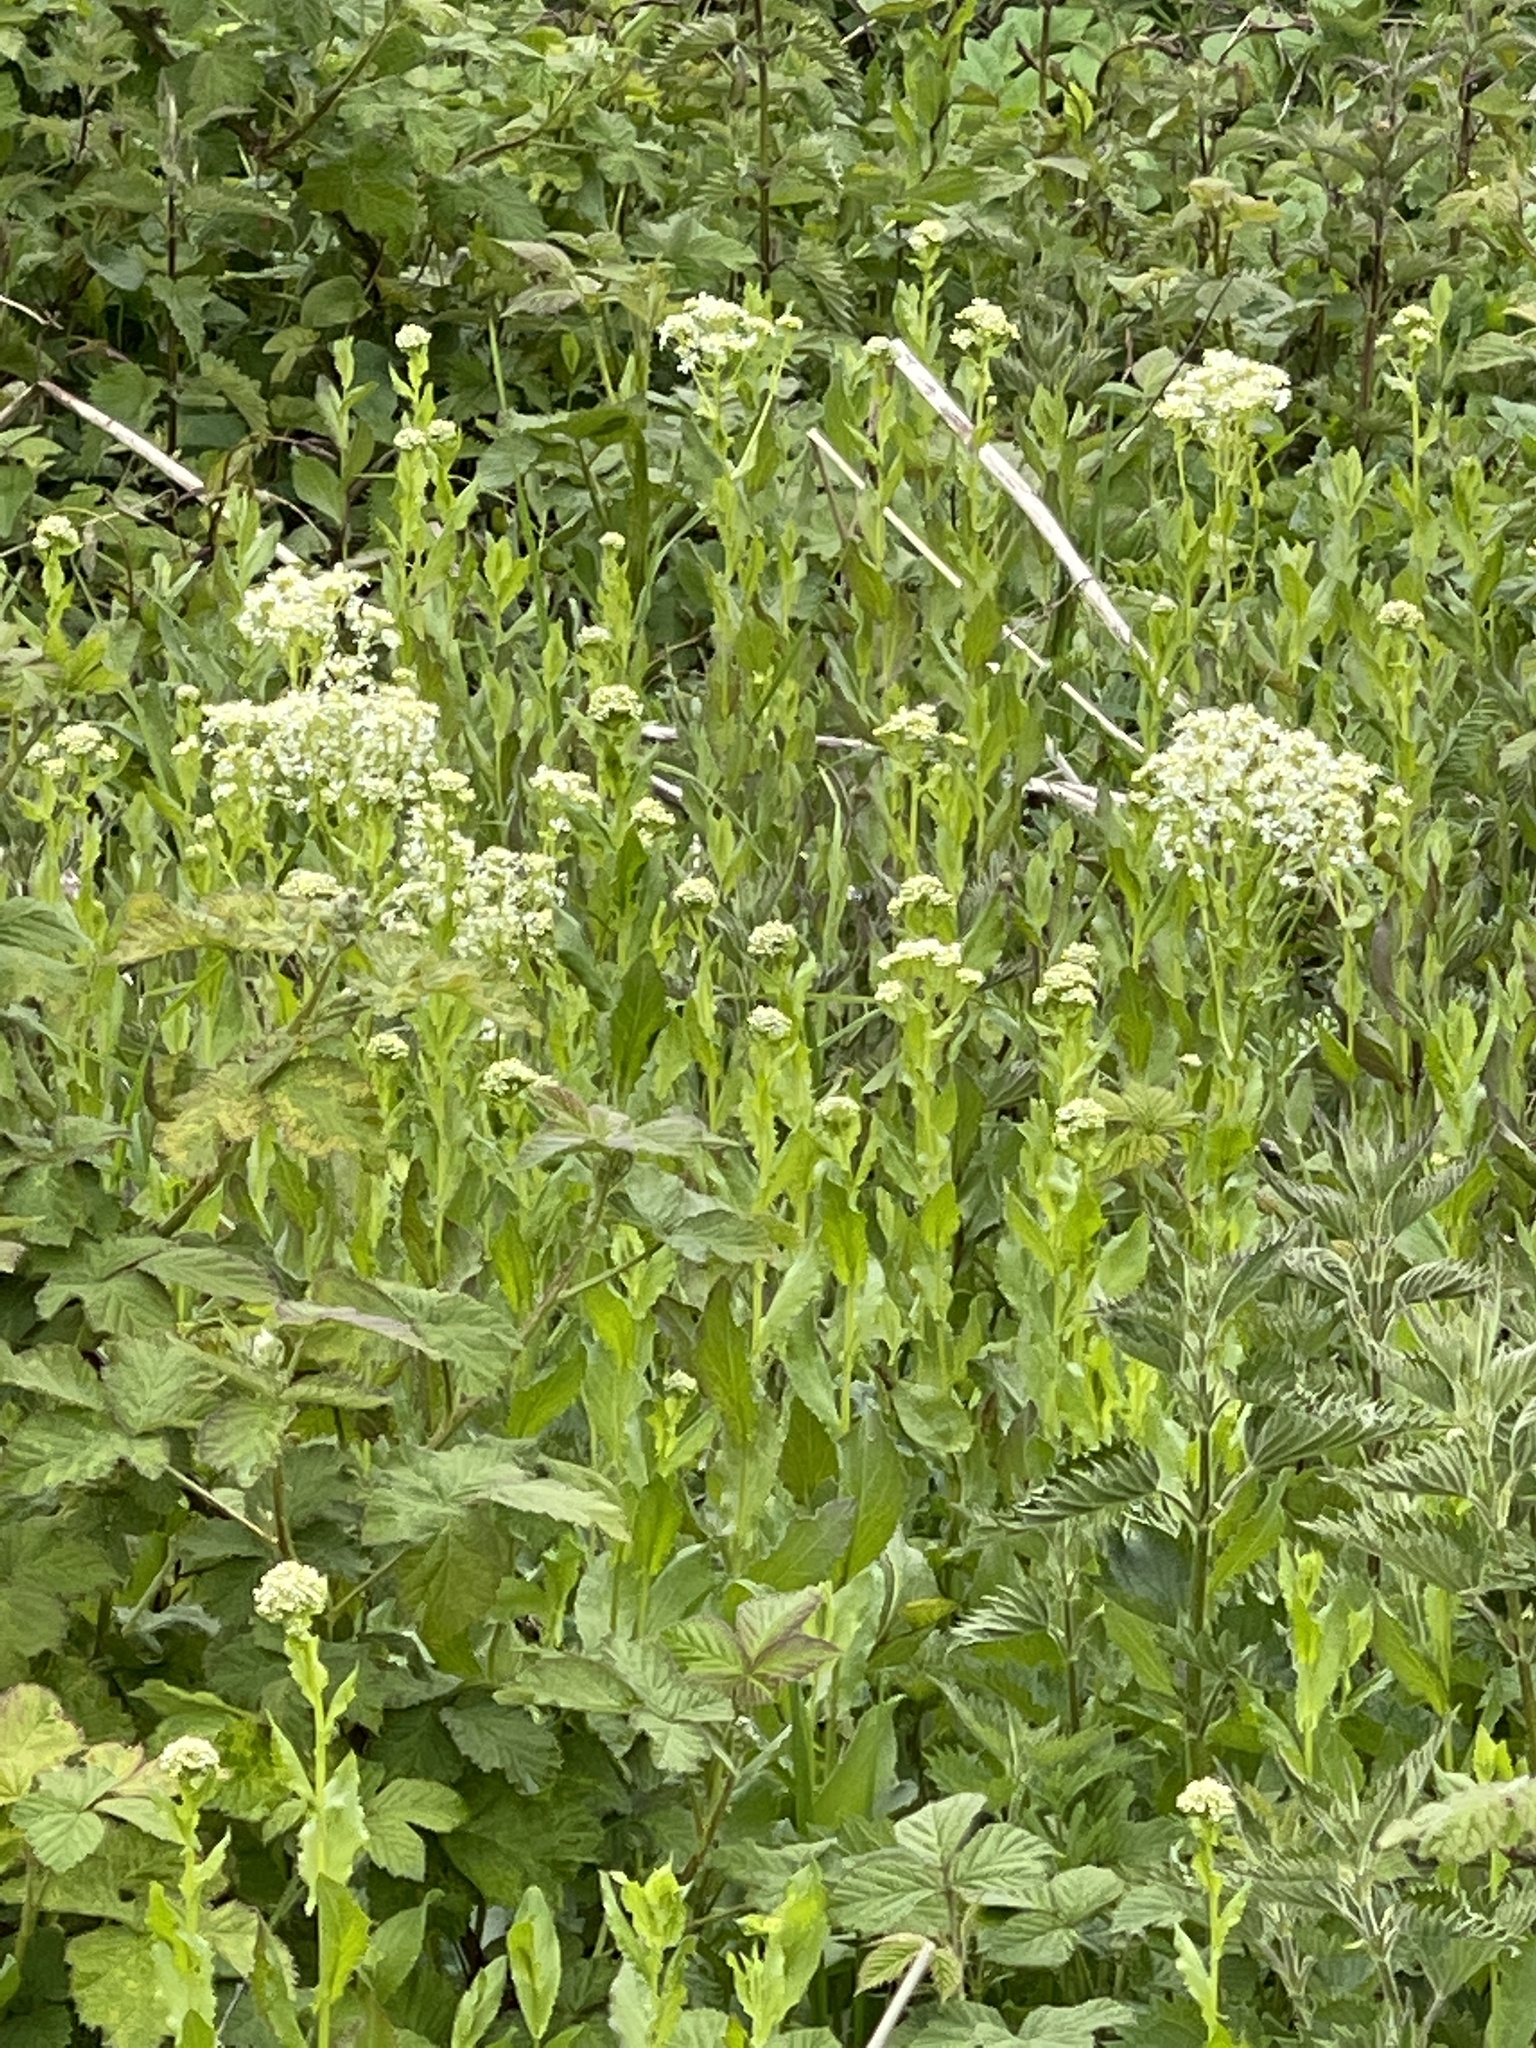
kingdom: Plantae
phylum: Tracheophyta
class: Magnoliopsida
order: Brassicales
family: Brassicaceae
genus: Lepidium
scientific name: Lepidium draba
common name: Hoary cress
